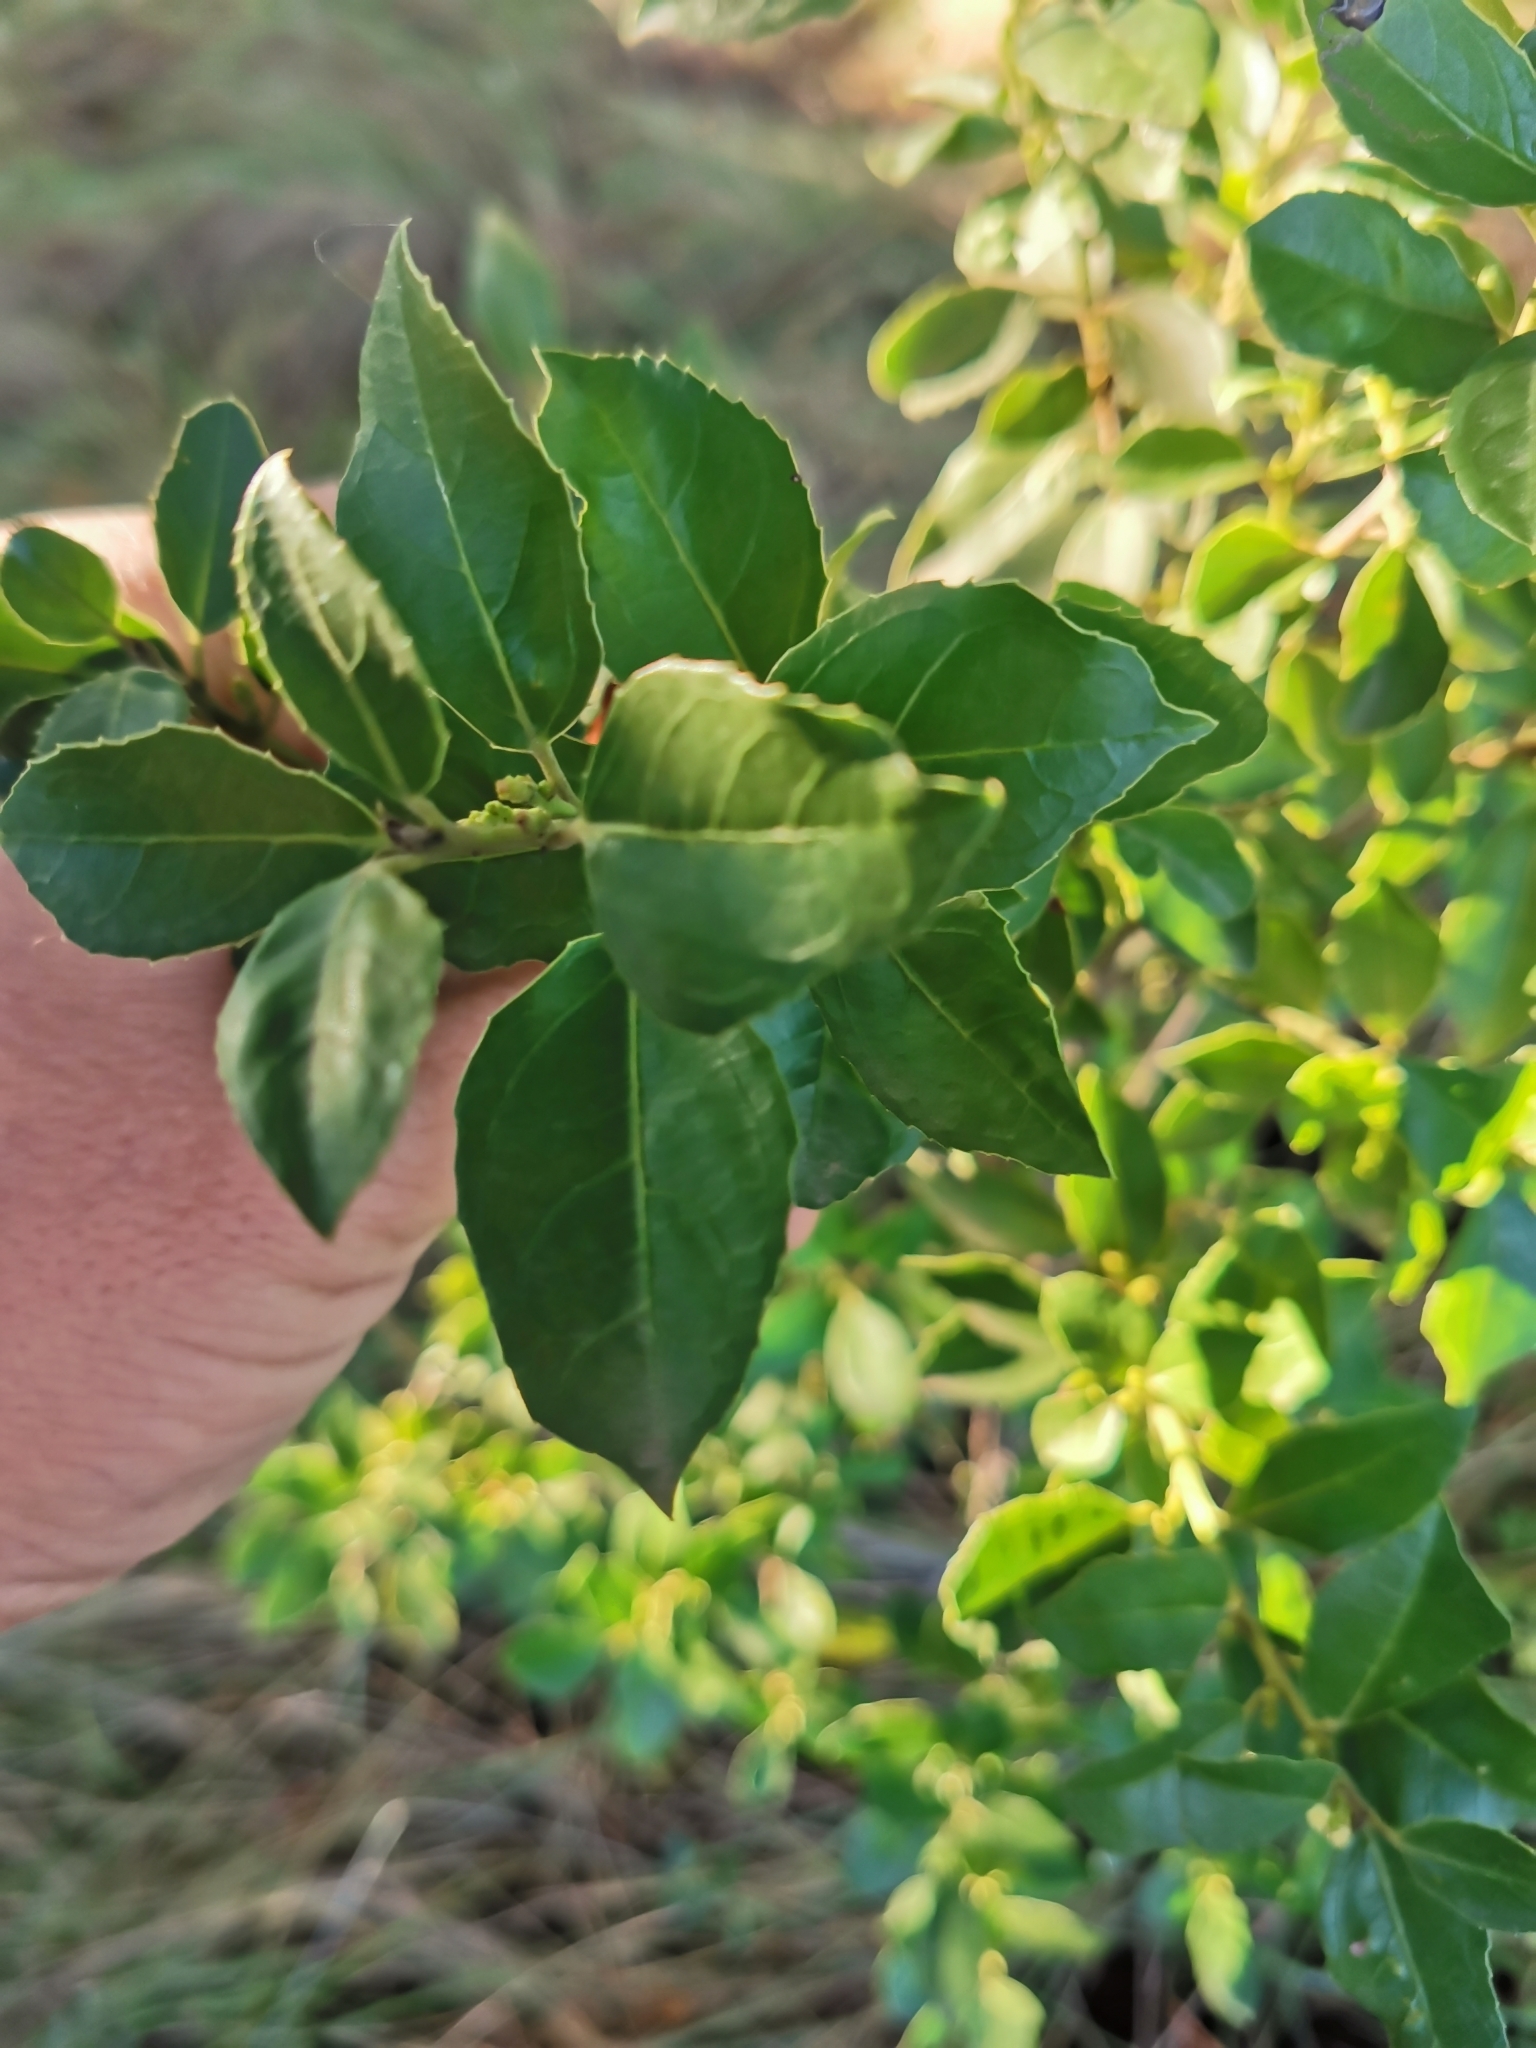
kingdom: Plantae
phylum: Tracheophyta
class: Magnoliopsida
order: Rosales
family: Rhamnaceae
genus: Rhamnus
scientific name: Rhamnus alaternus
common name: Mediterranean buckthorn
